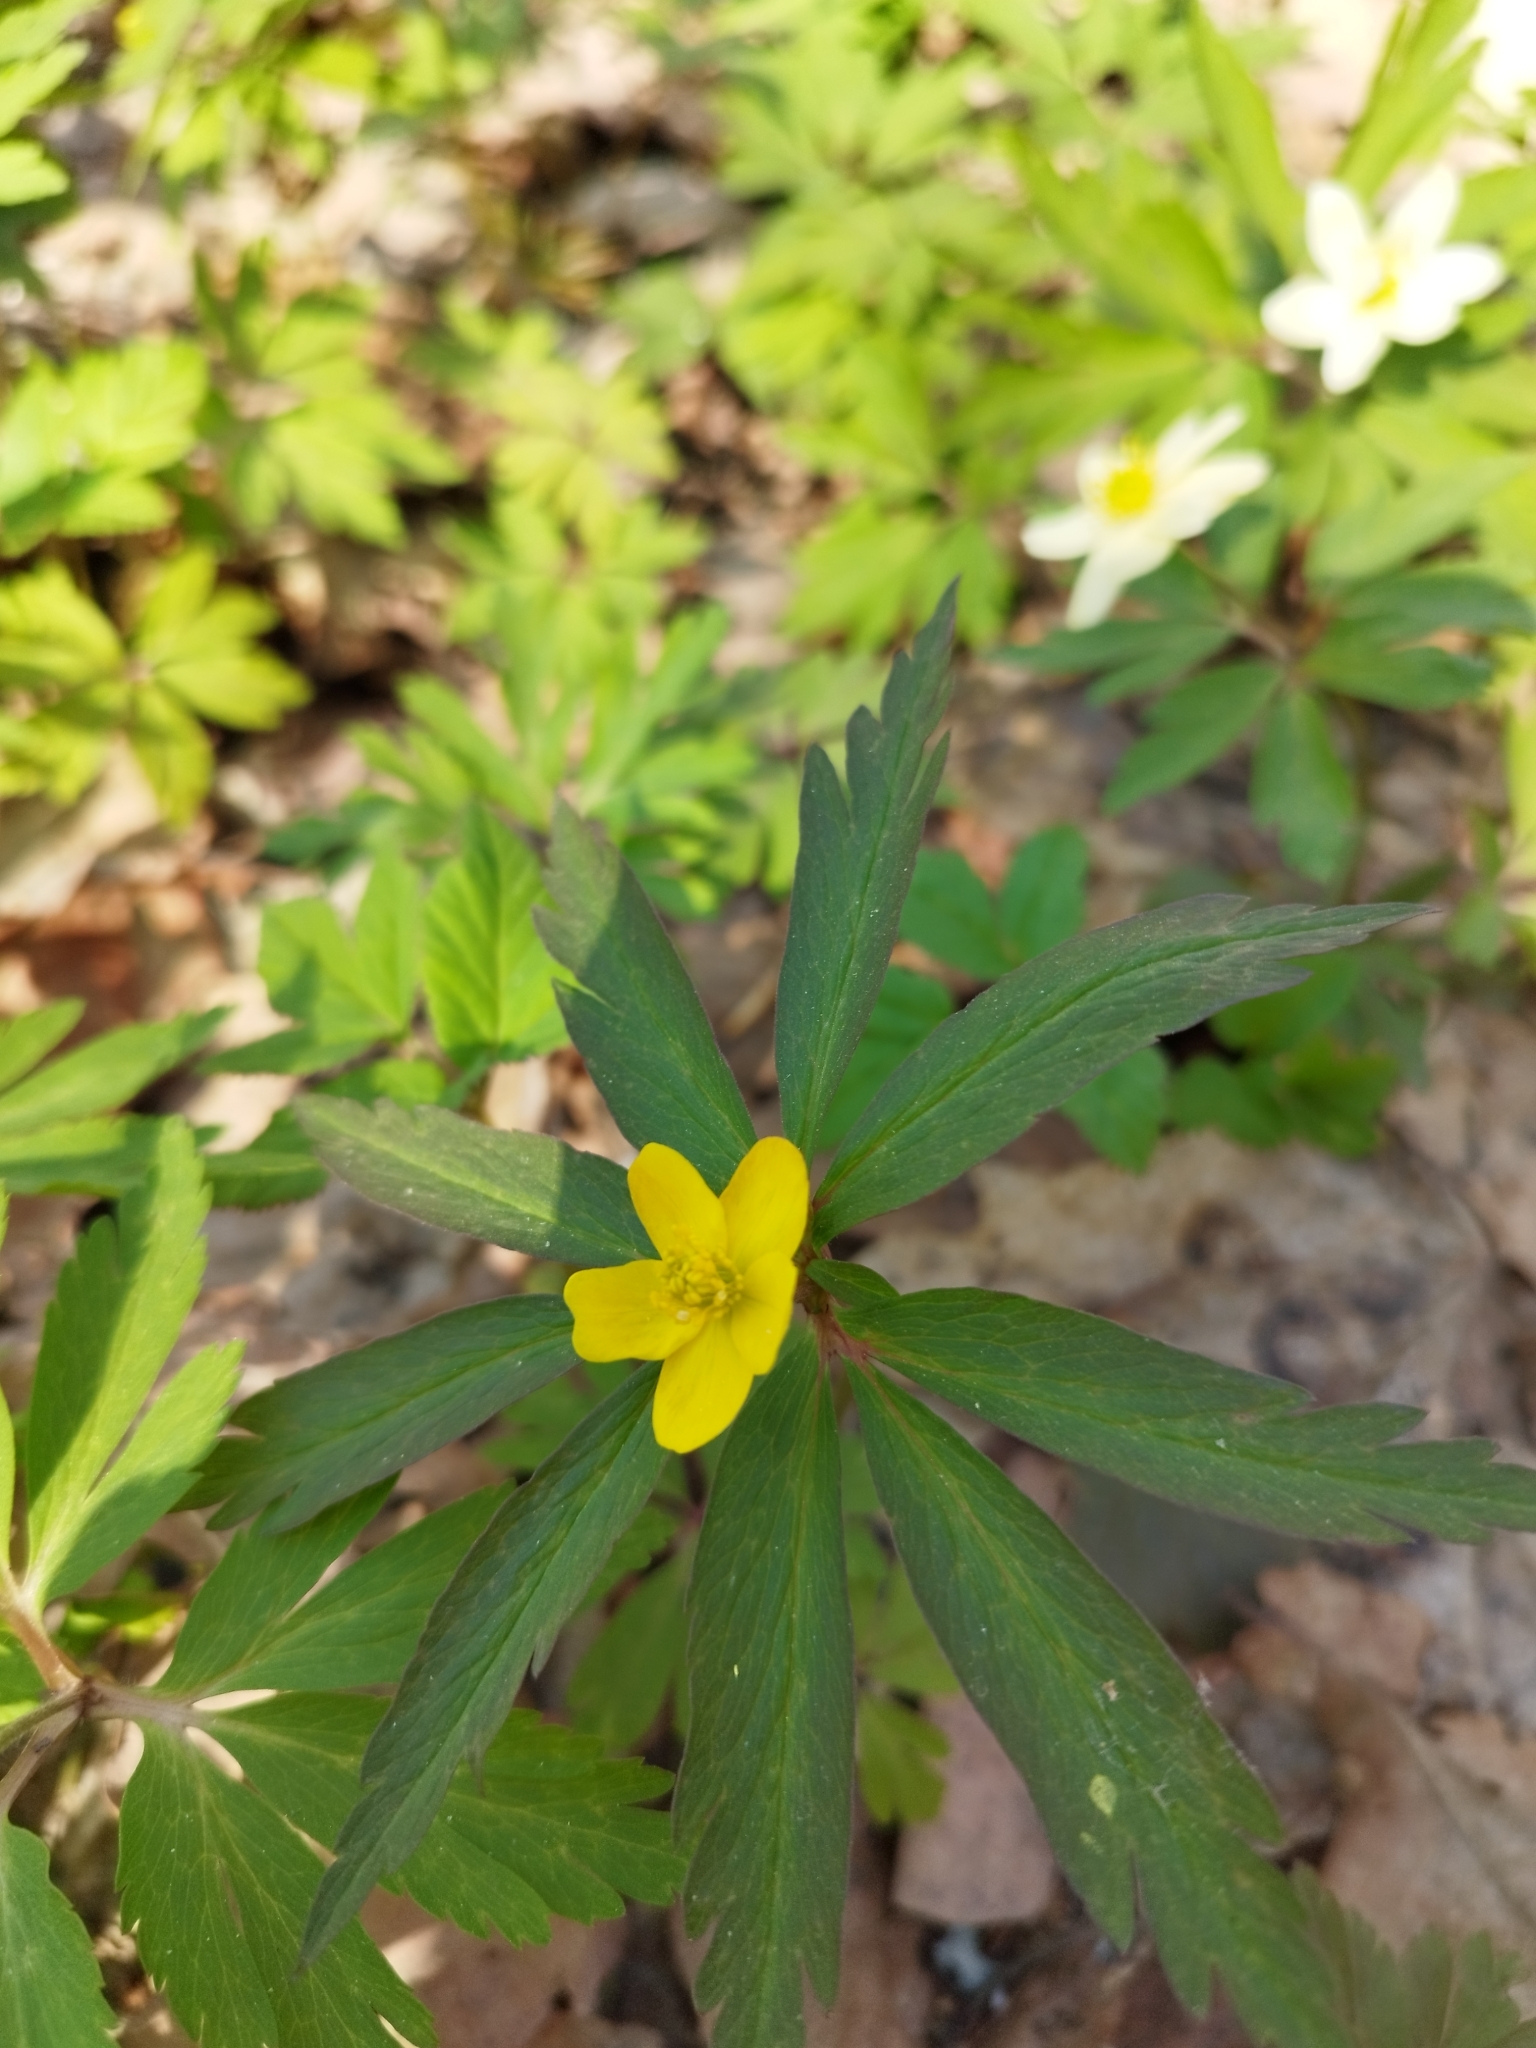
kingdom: Plantae
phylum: Tracheophyta
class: Magnoliopsida
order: Ranunculales
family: Ranunculaceae
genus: Anemone
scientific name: Anemone ranunculoides
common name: Yellow anemone
